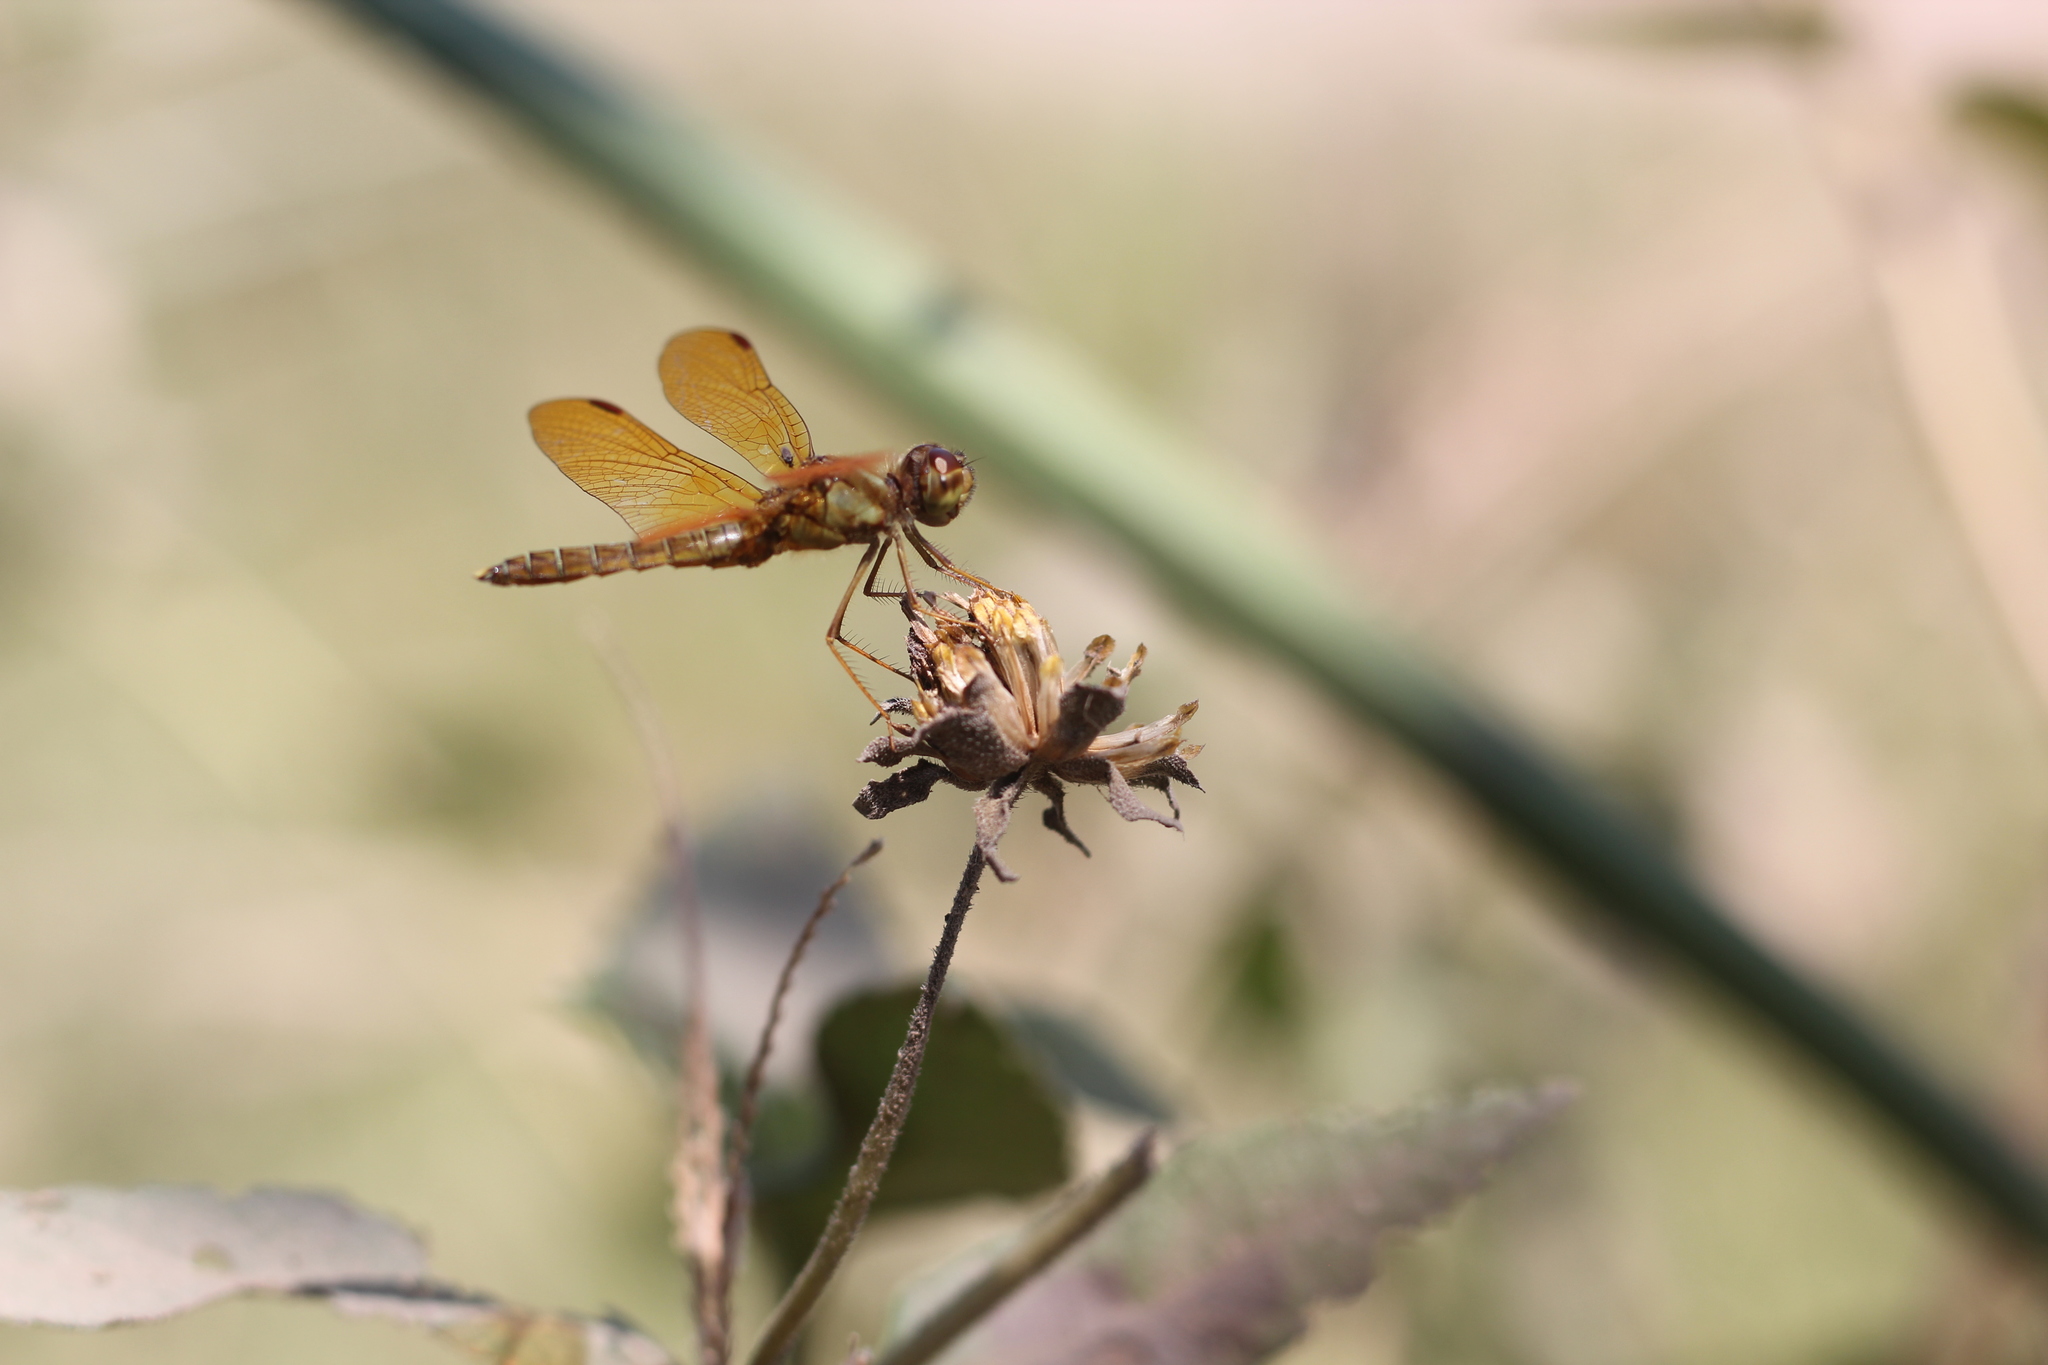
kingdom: Animalia
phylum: Arthropoda
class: Insecta
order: Odonata
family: Libellulidae
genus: Perithemis
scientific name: Perithemis tenera
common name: Eastern amberwing
